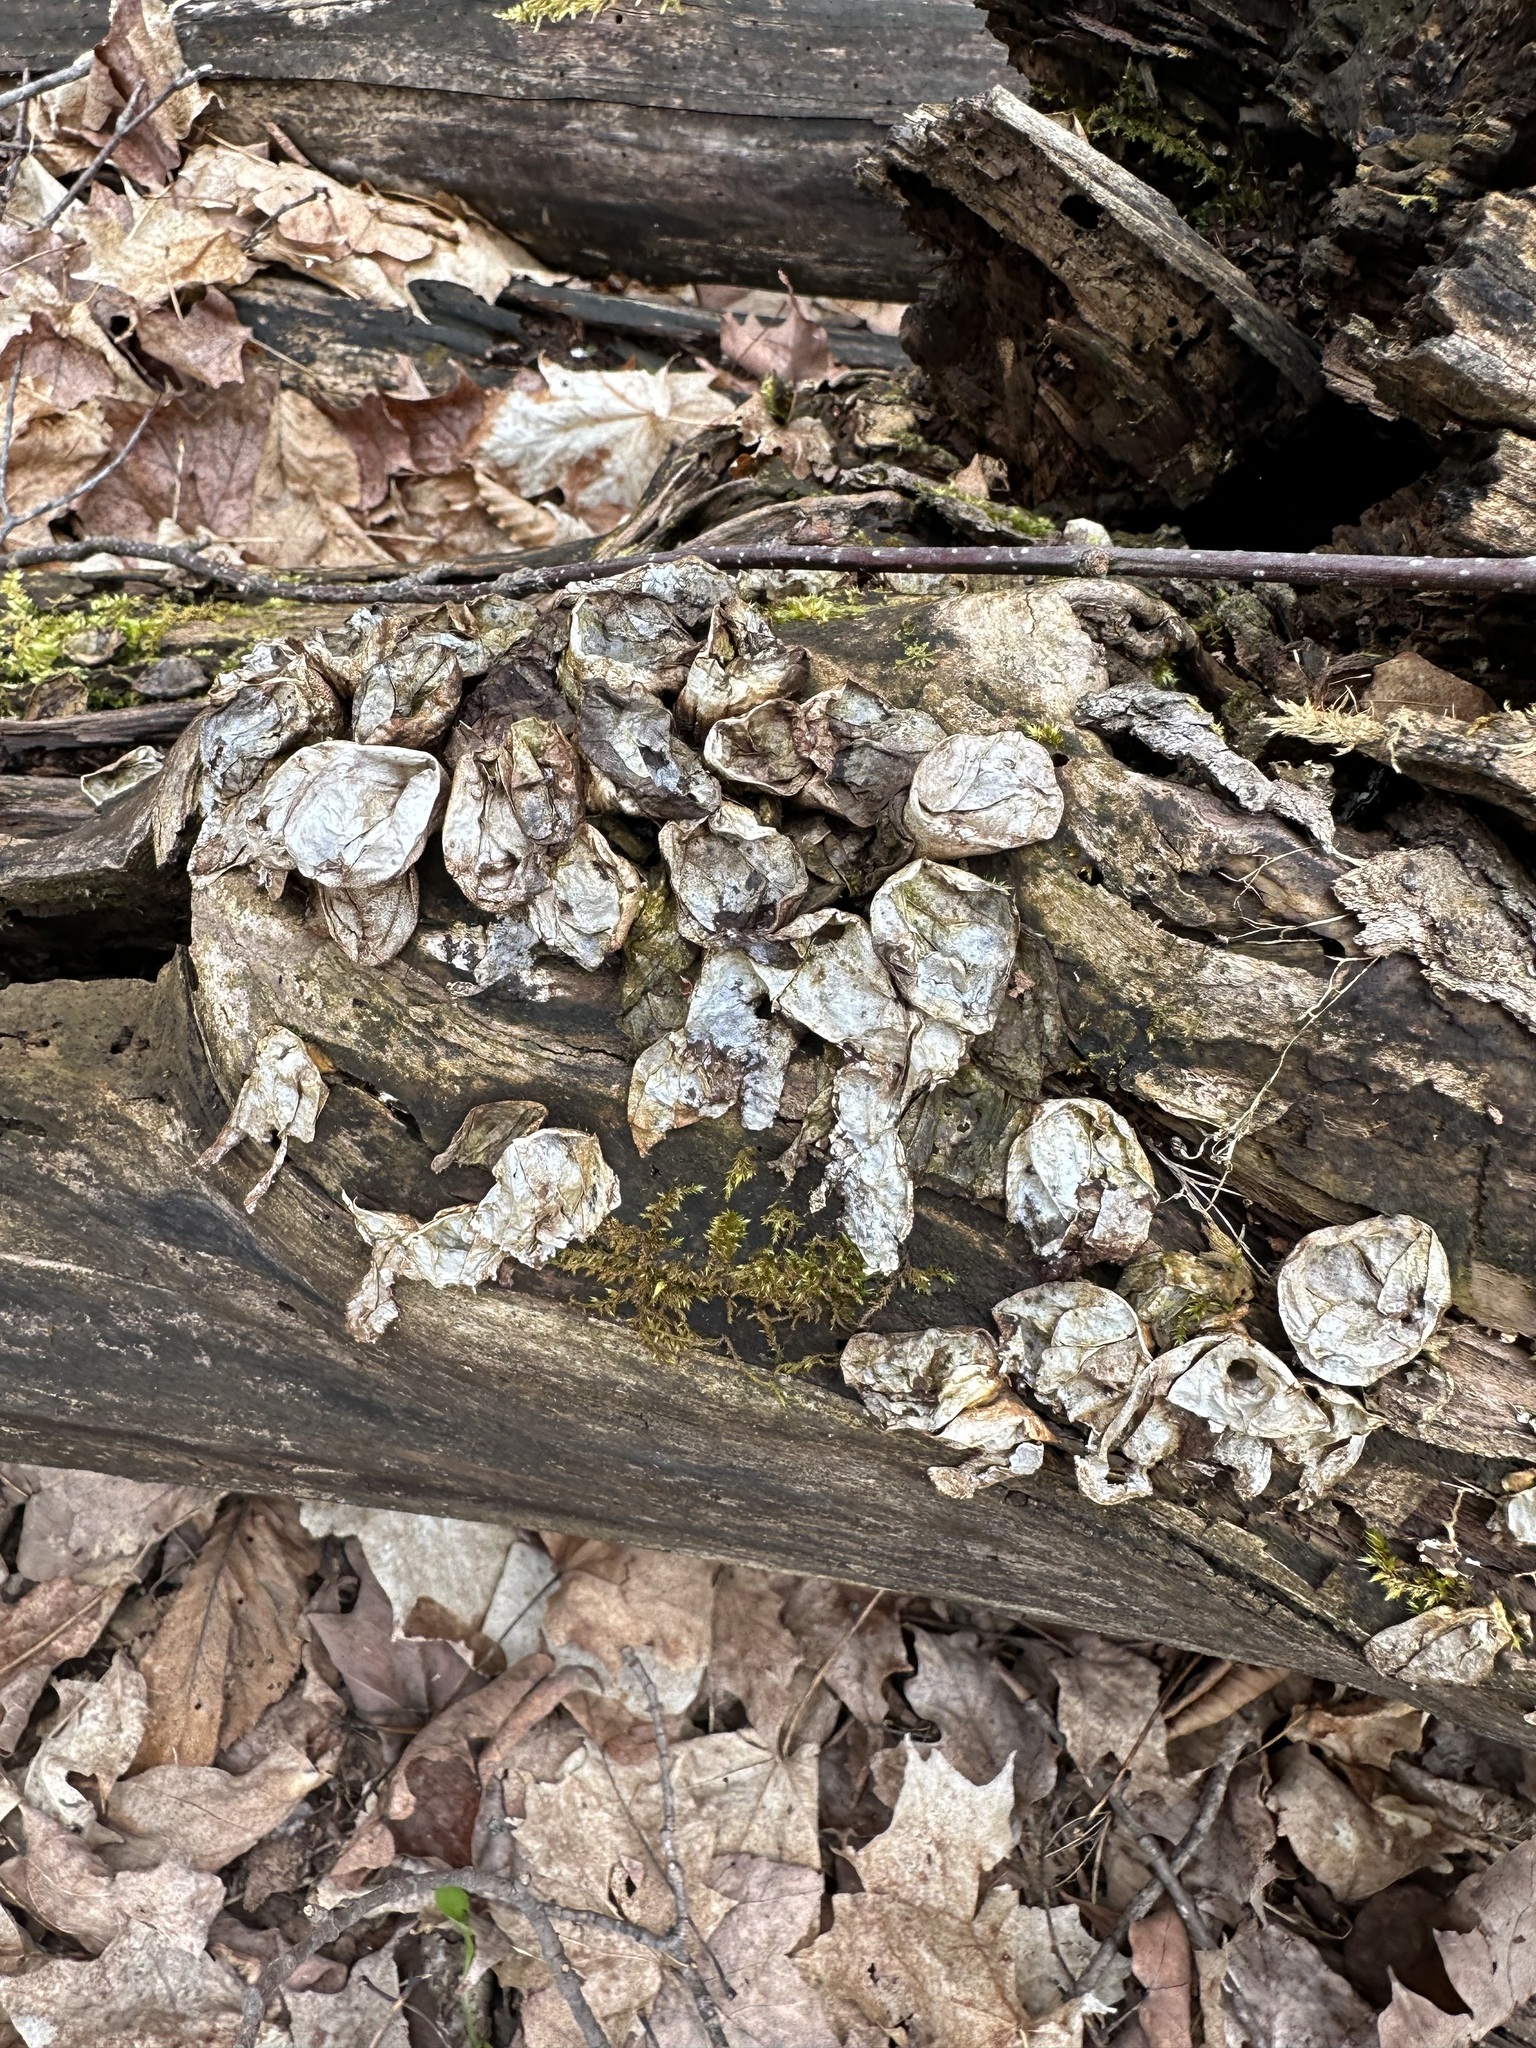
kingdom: Fungi
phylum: Basidiomycota
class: Agaricomycetes
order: Agaricales
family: Lycoperdaceae
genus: Apioperdon
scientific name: Apioperdon pyriforme
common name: Pear-shaped puffball
